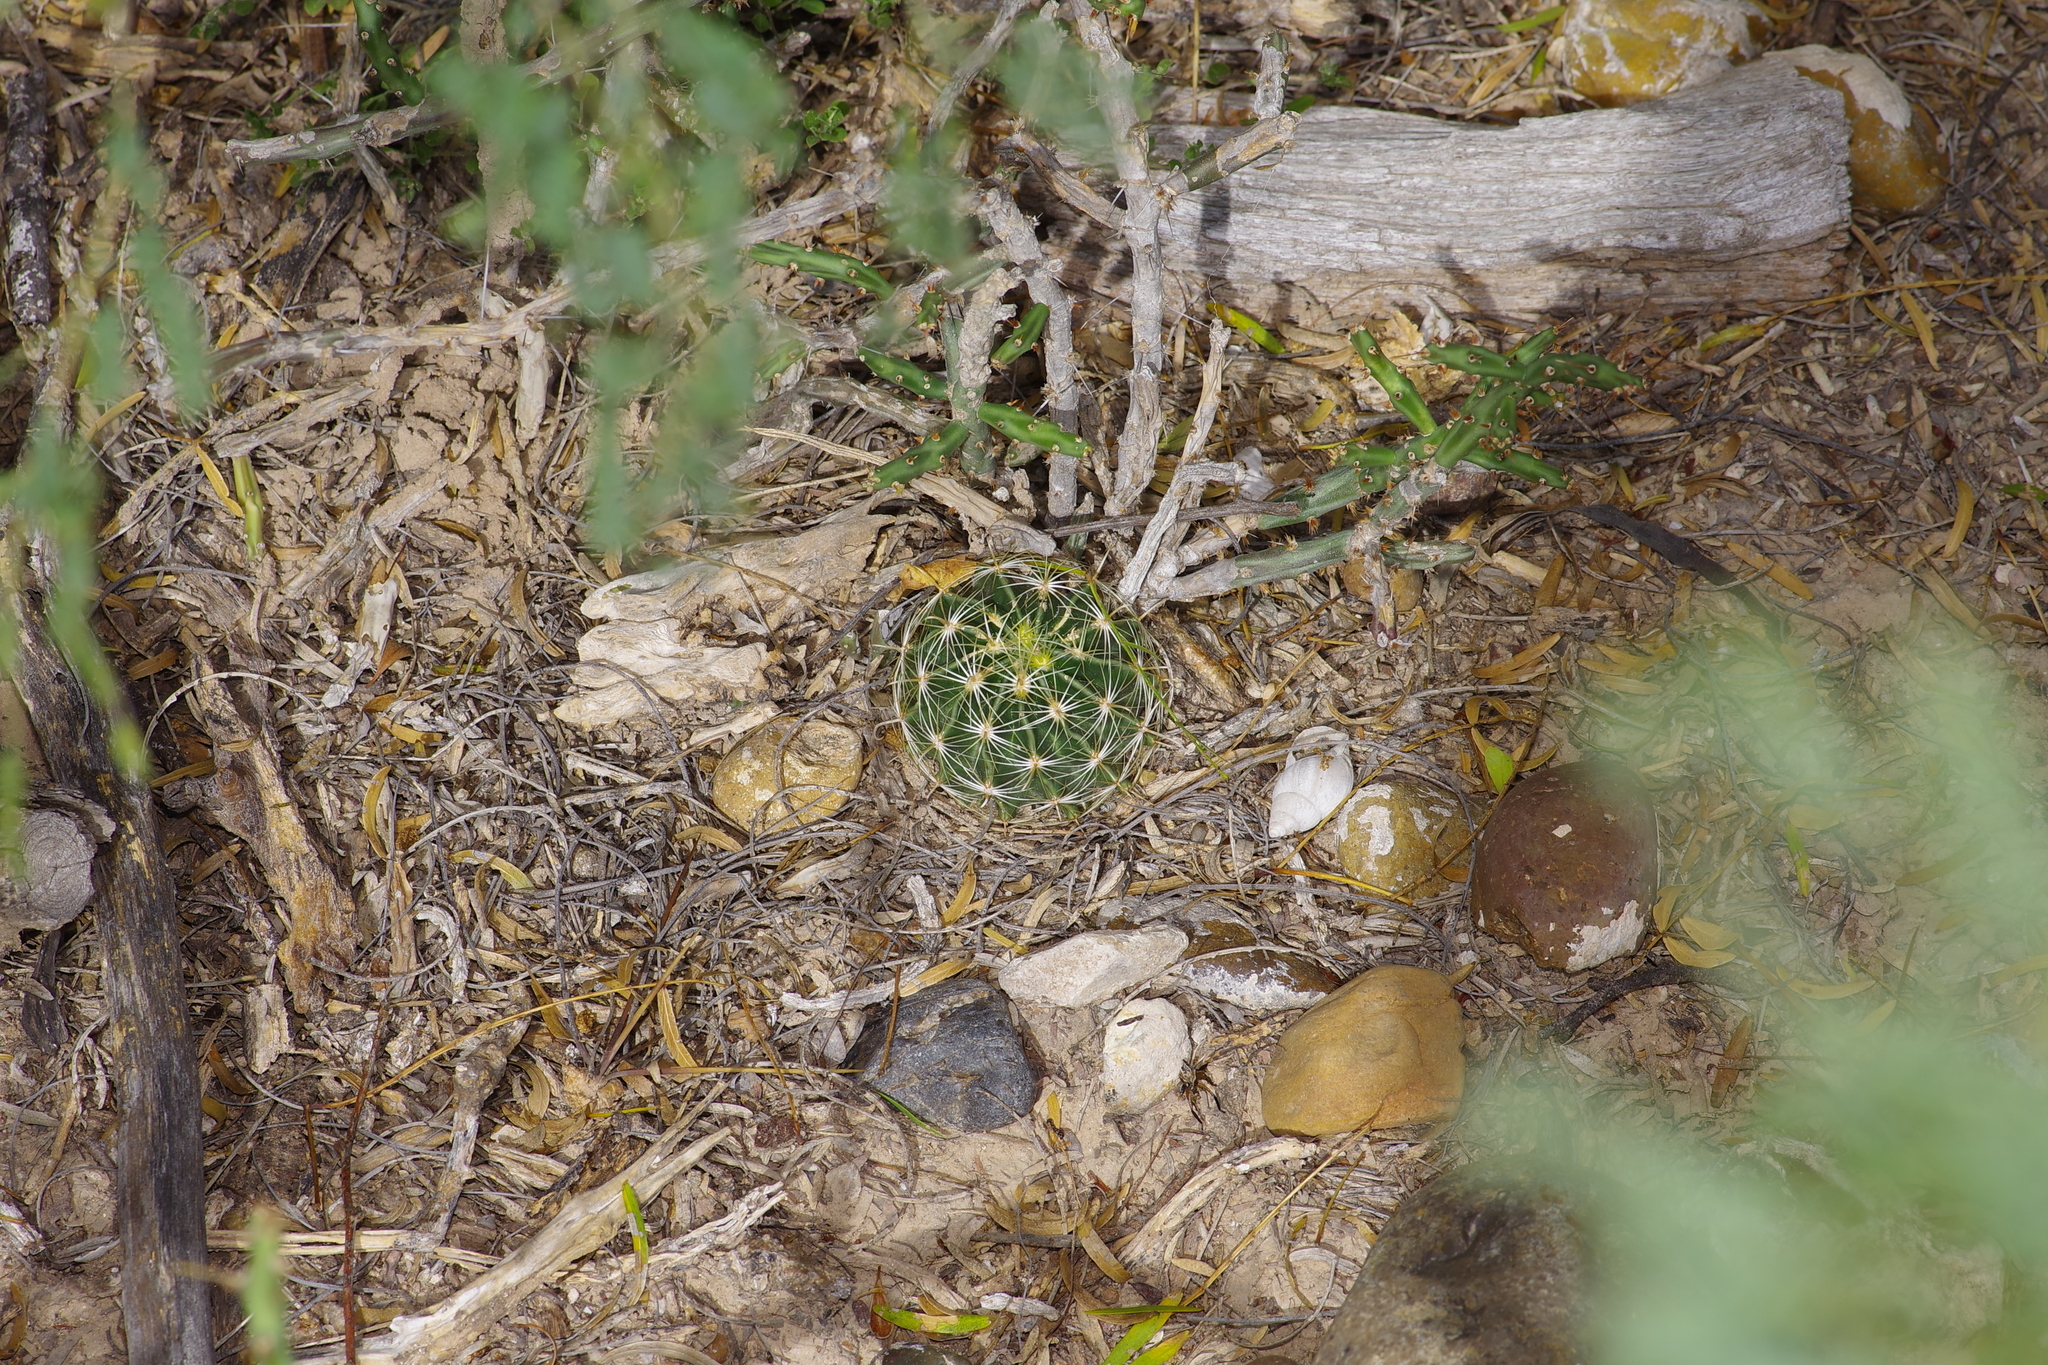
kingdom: Plantae
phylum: Tracheophyta
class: Magnoliopsida
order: Caryophyllales
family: Cactaceae
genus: Thelocactus
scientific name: Thelocactus setispinus
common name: Miniature barrel cactus
